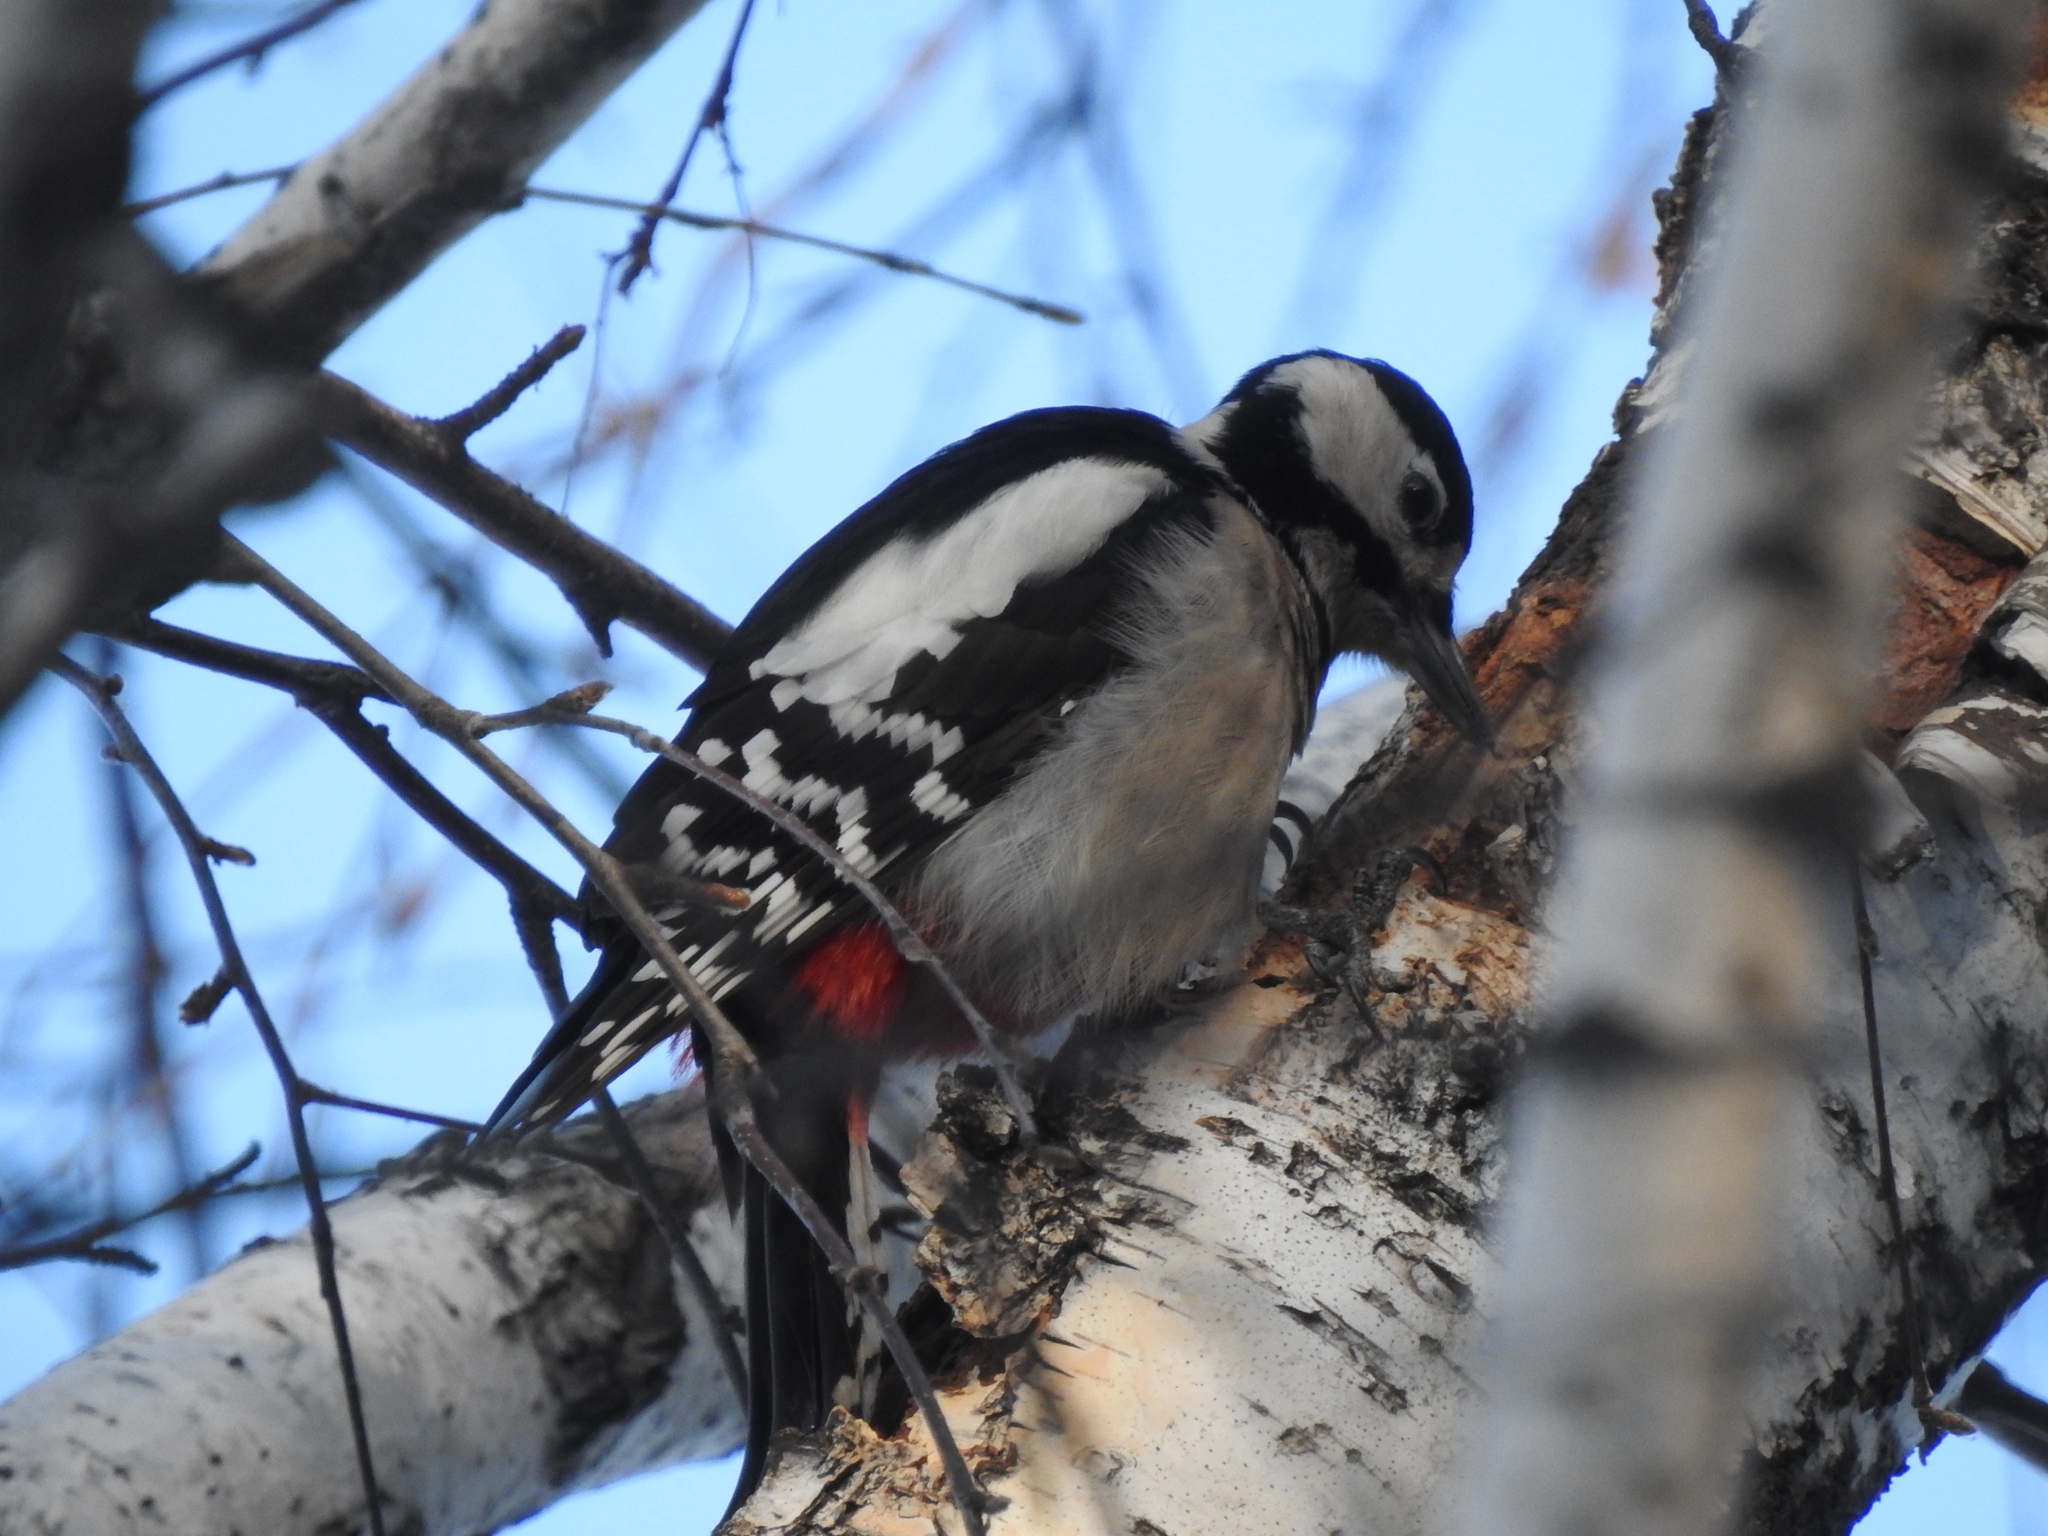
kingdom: Animalia
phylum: Chordata
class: Aves
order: Piciformes
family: Picidae
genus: Dendrocopos
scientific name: Dendrocopos major
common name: Great spotted woodpecker
